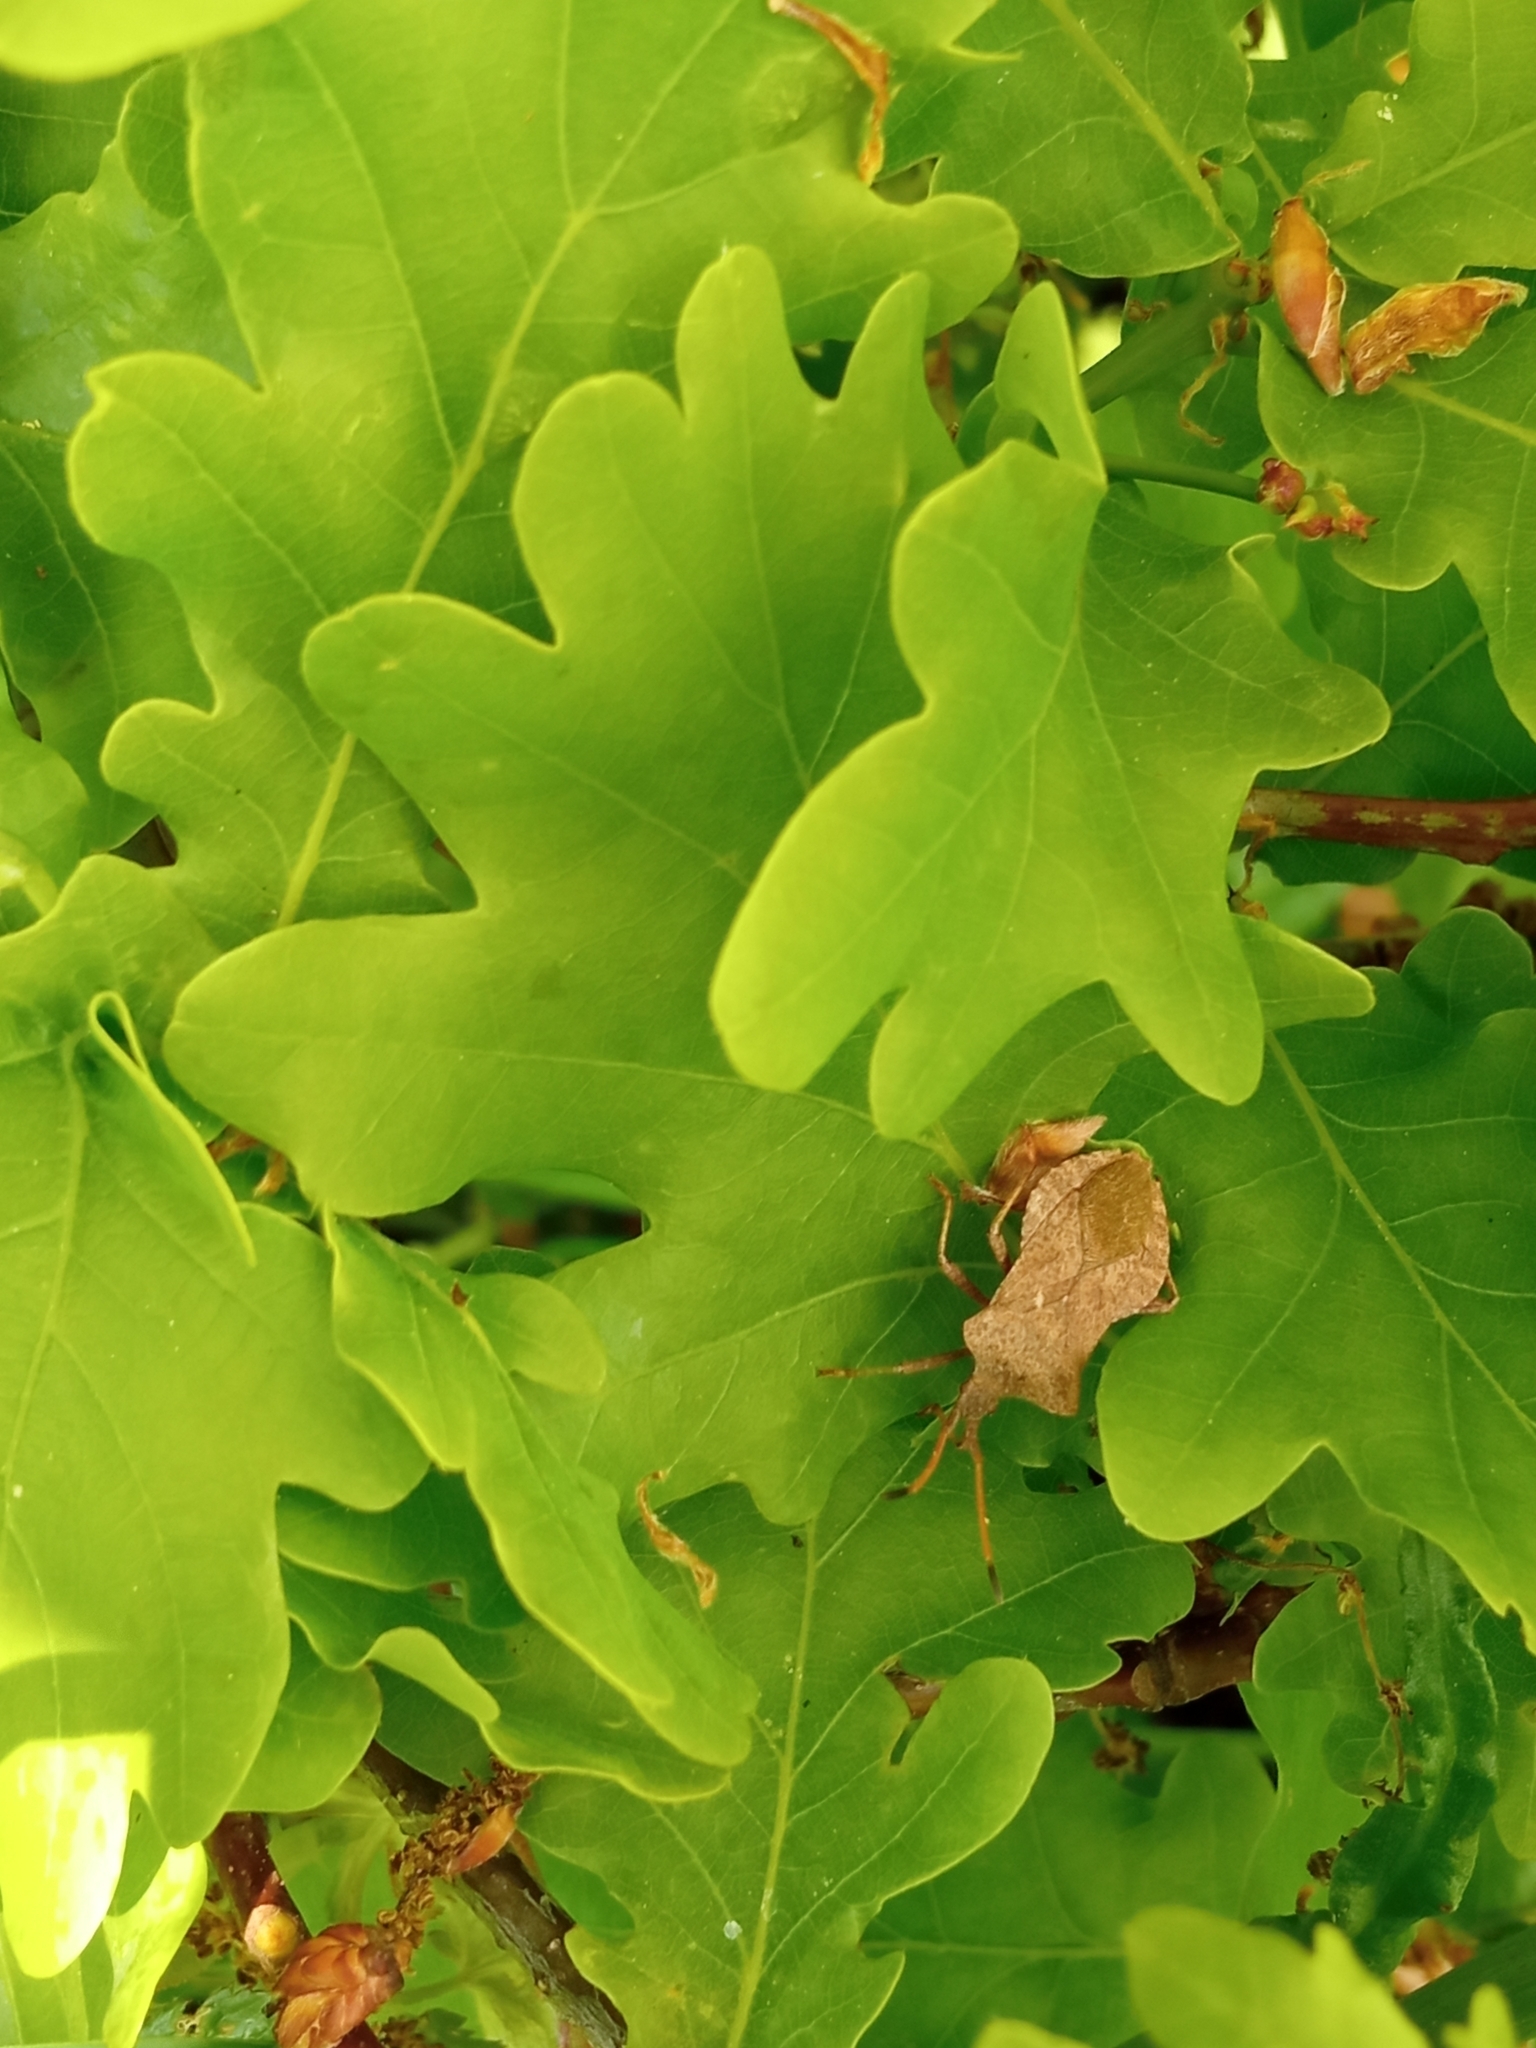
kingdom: Animalia
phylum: Arthropoda
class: Insecta
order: Hemiptera
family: Coreidae
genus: Coreus
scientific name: Coreus marginatus
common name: Dock bug
